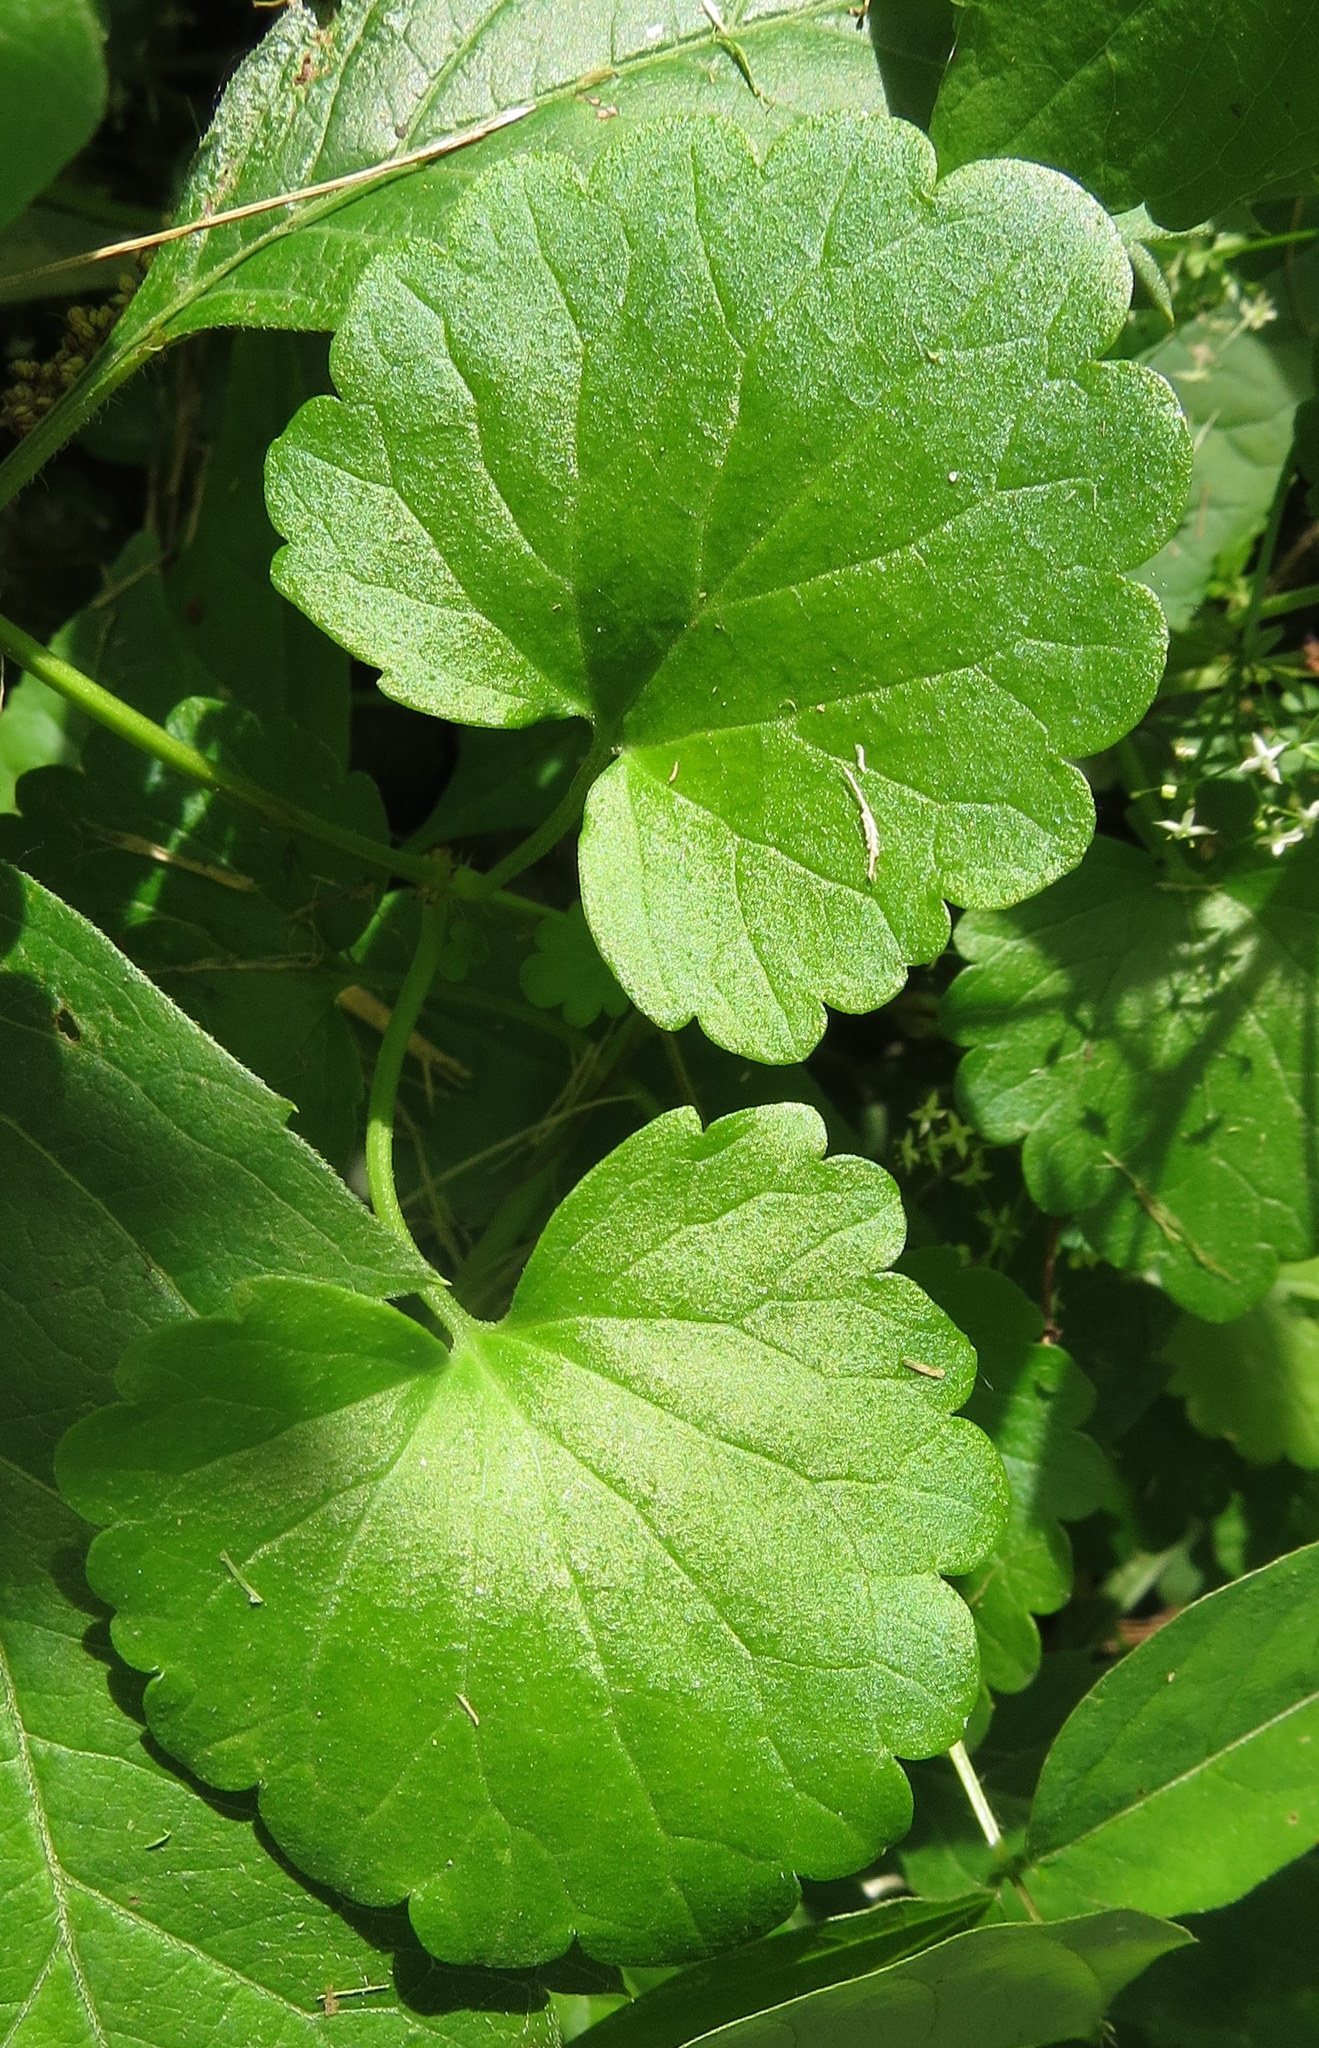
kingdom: Plantae
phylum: Tracheophyta
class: Magnoliopsida
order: Lamiales
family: Lamiaceae
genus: Glechoma
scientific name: Glechoma hederacea
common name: Ground ivy
